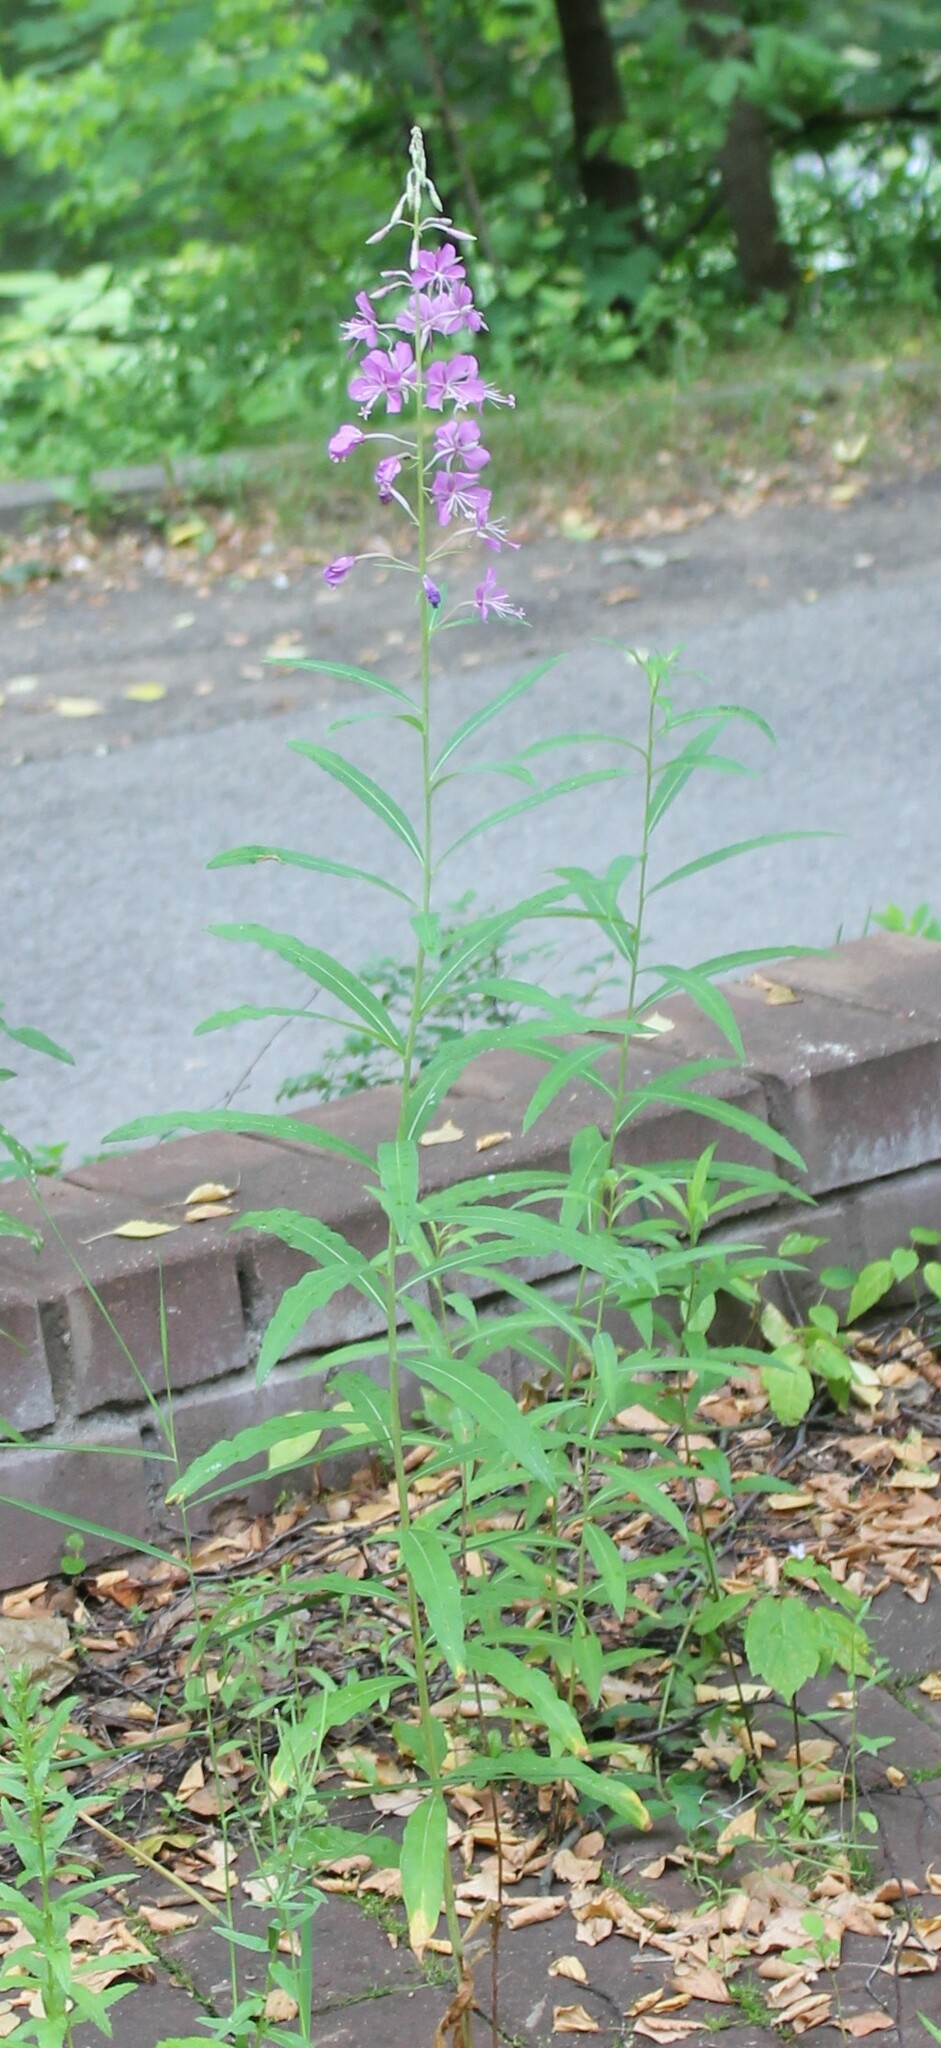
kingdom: Plantae
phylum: Tracheophyta
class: Magnoliopsida
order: Myrtales
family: Onagraceae
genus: Chamaenerion
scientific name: Chamaenerion angustifolium
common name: Fireweed
